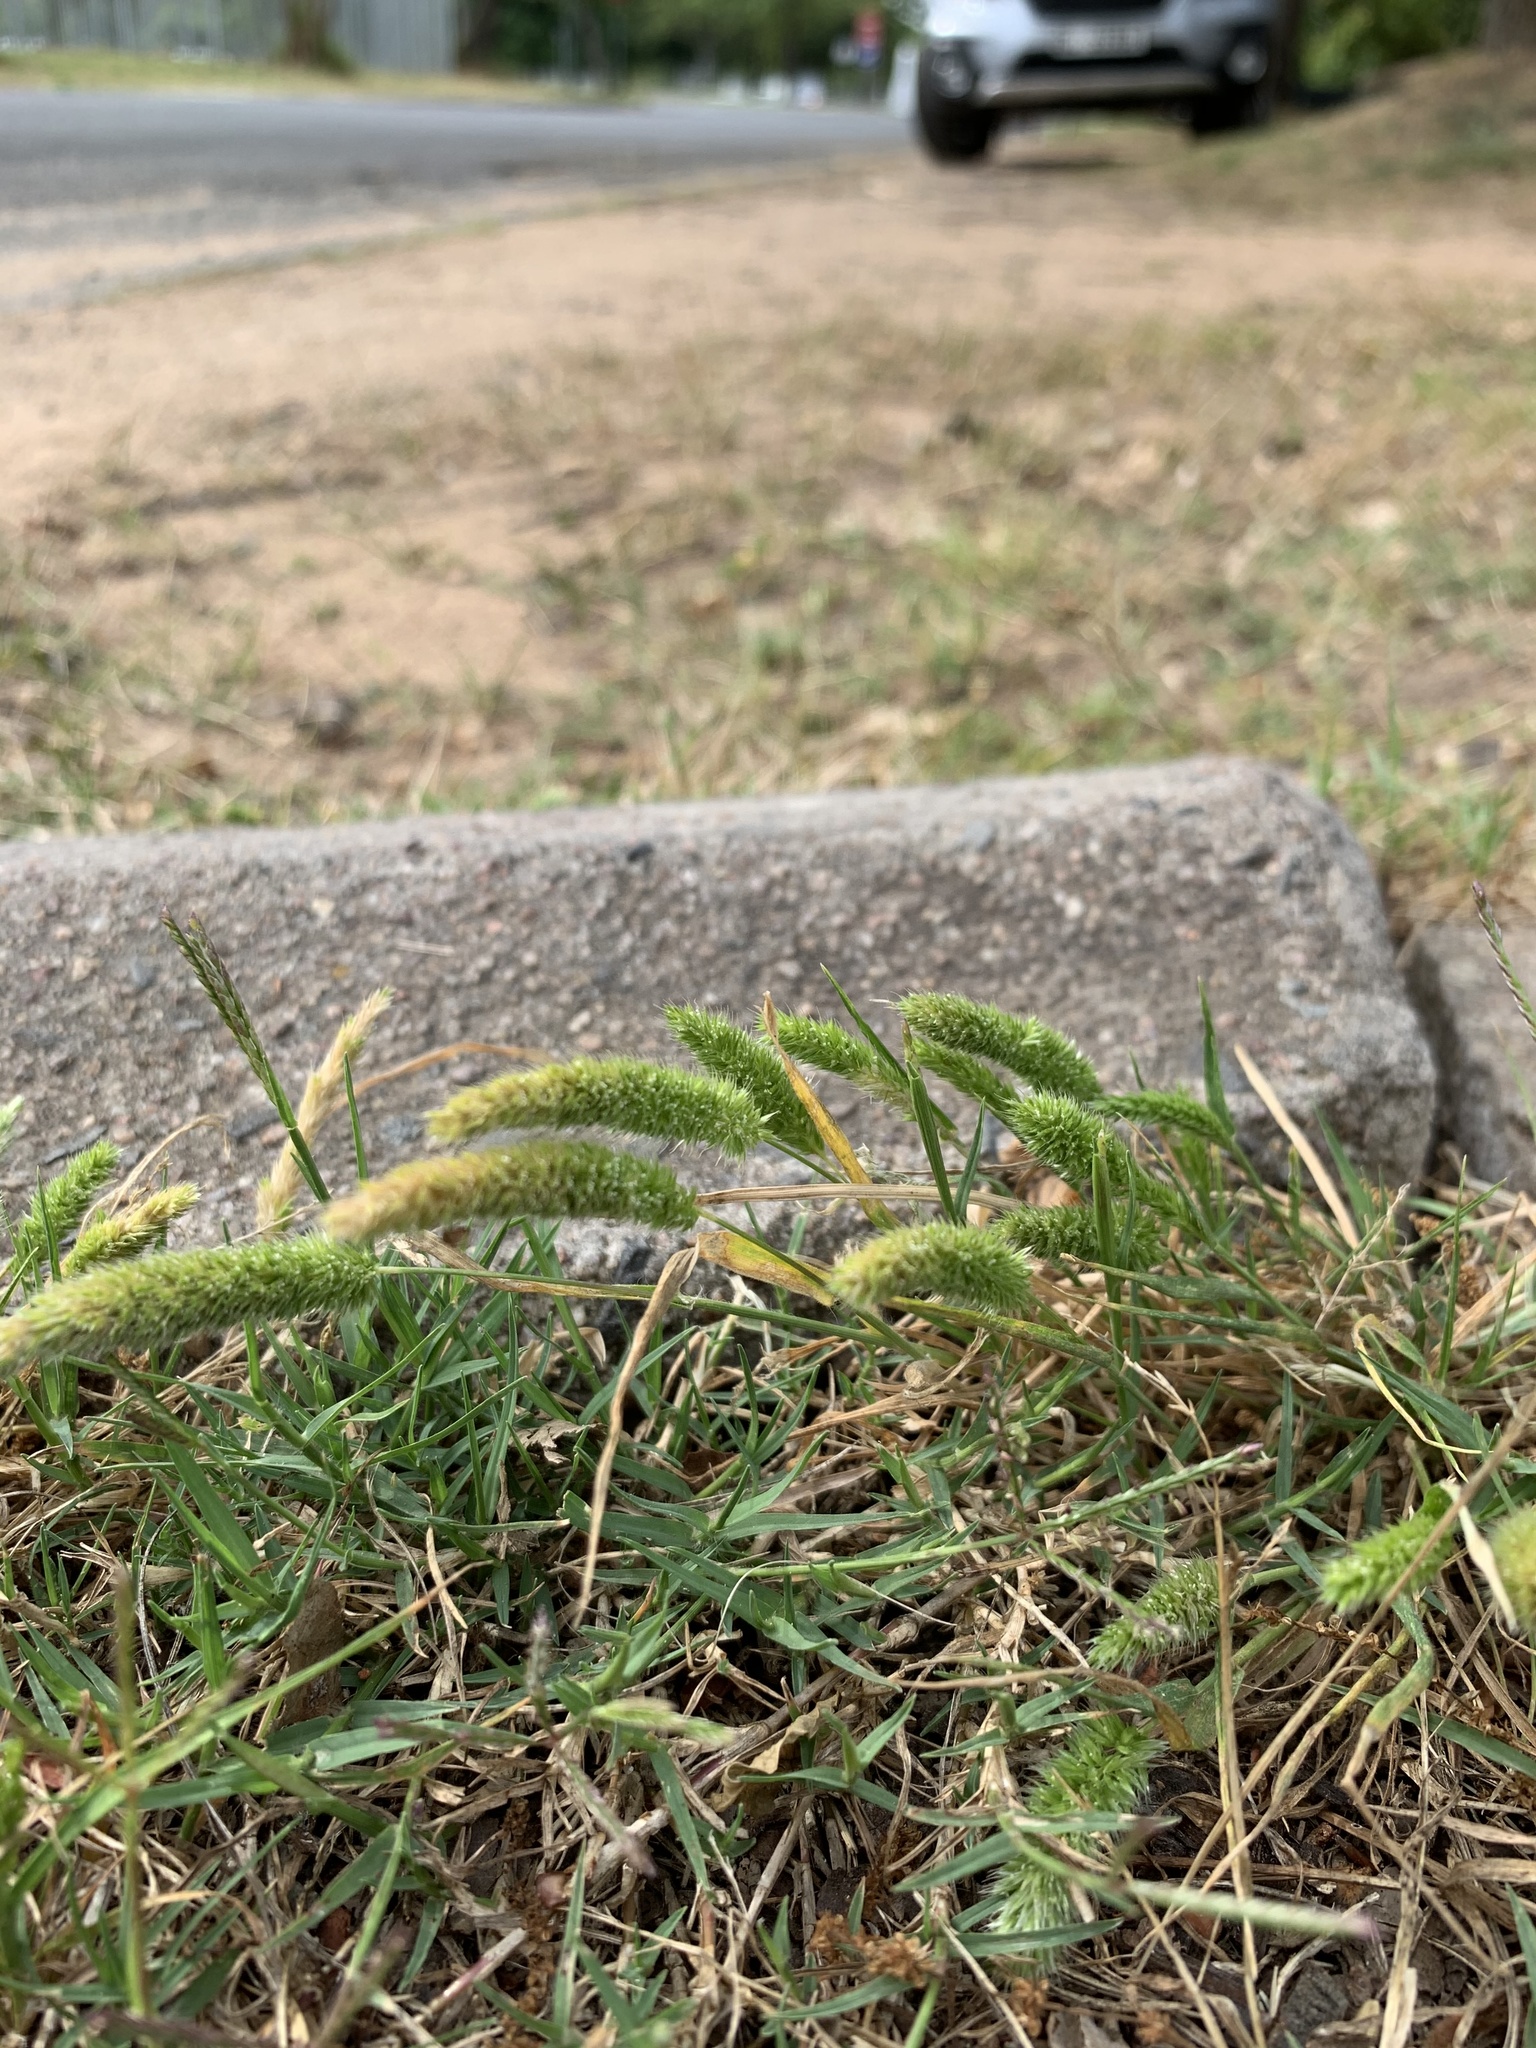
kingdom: Plantae
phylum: Tracheophyta
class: Liliopsida
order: Poales
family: Poaceae
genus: Rostraria
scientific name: Rostraria cristata
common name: Mediterranean hair-grass
